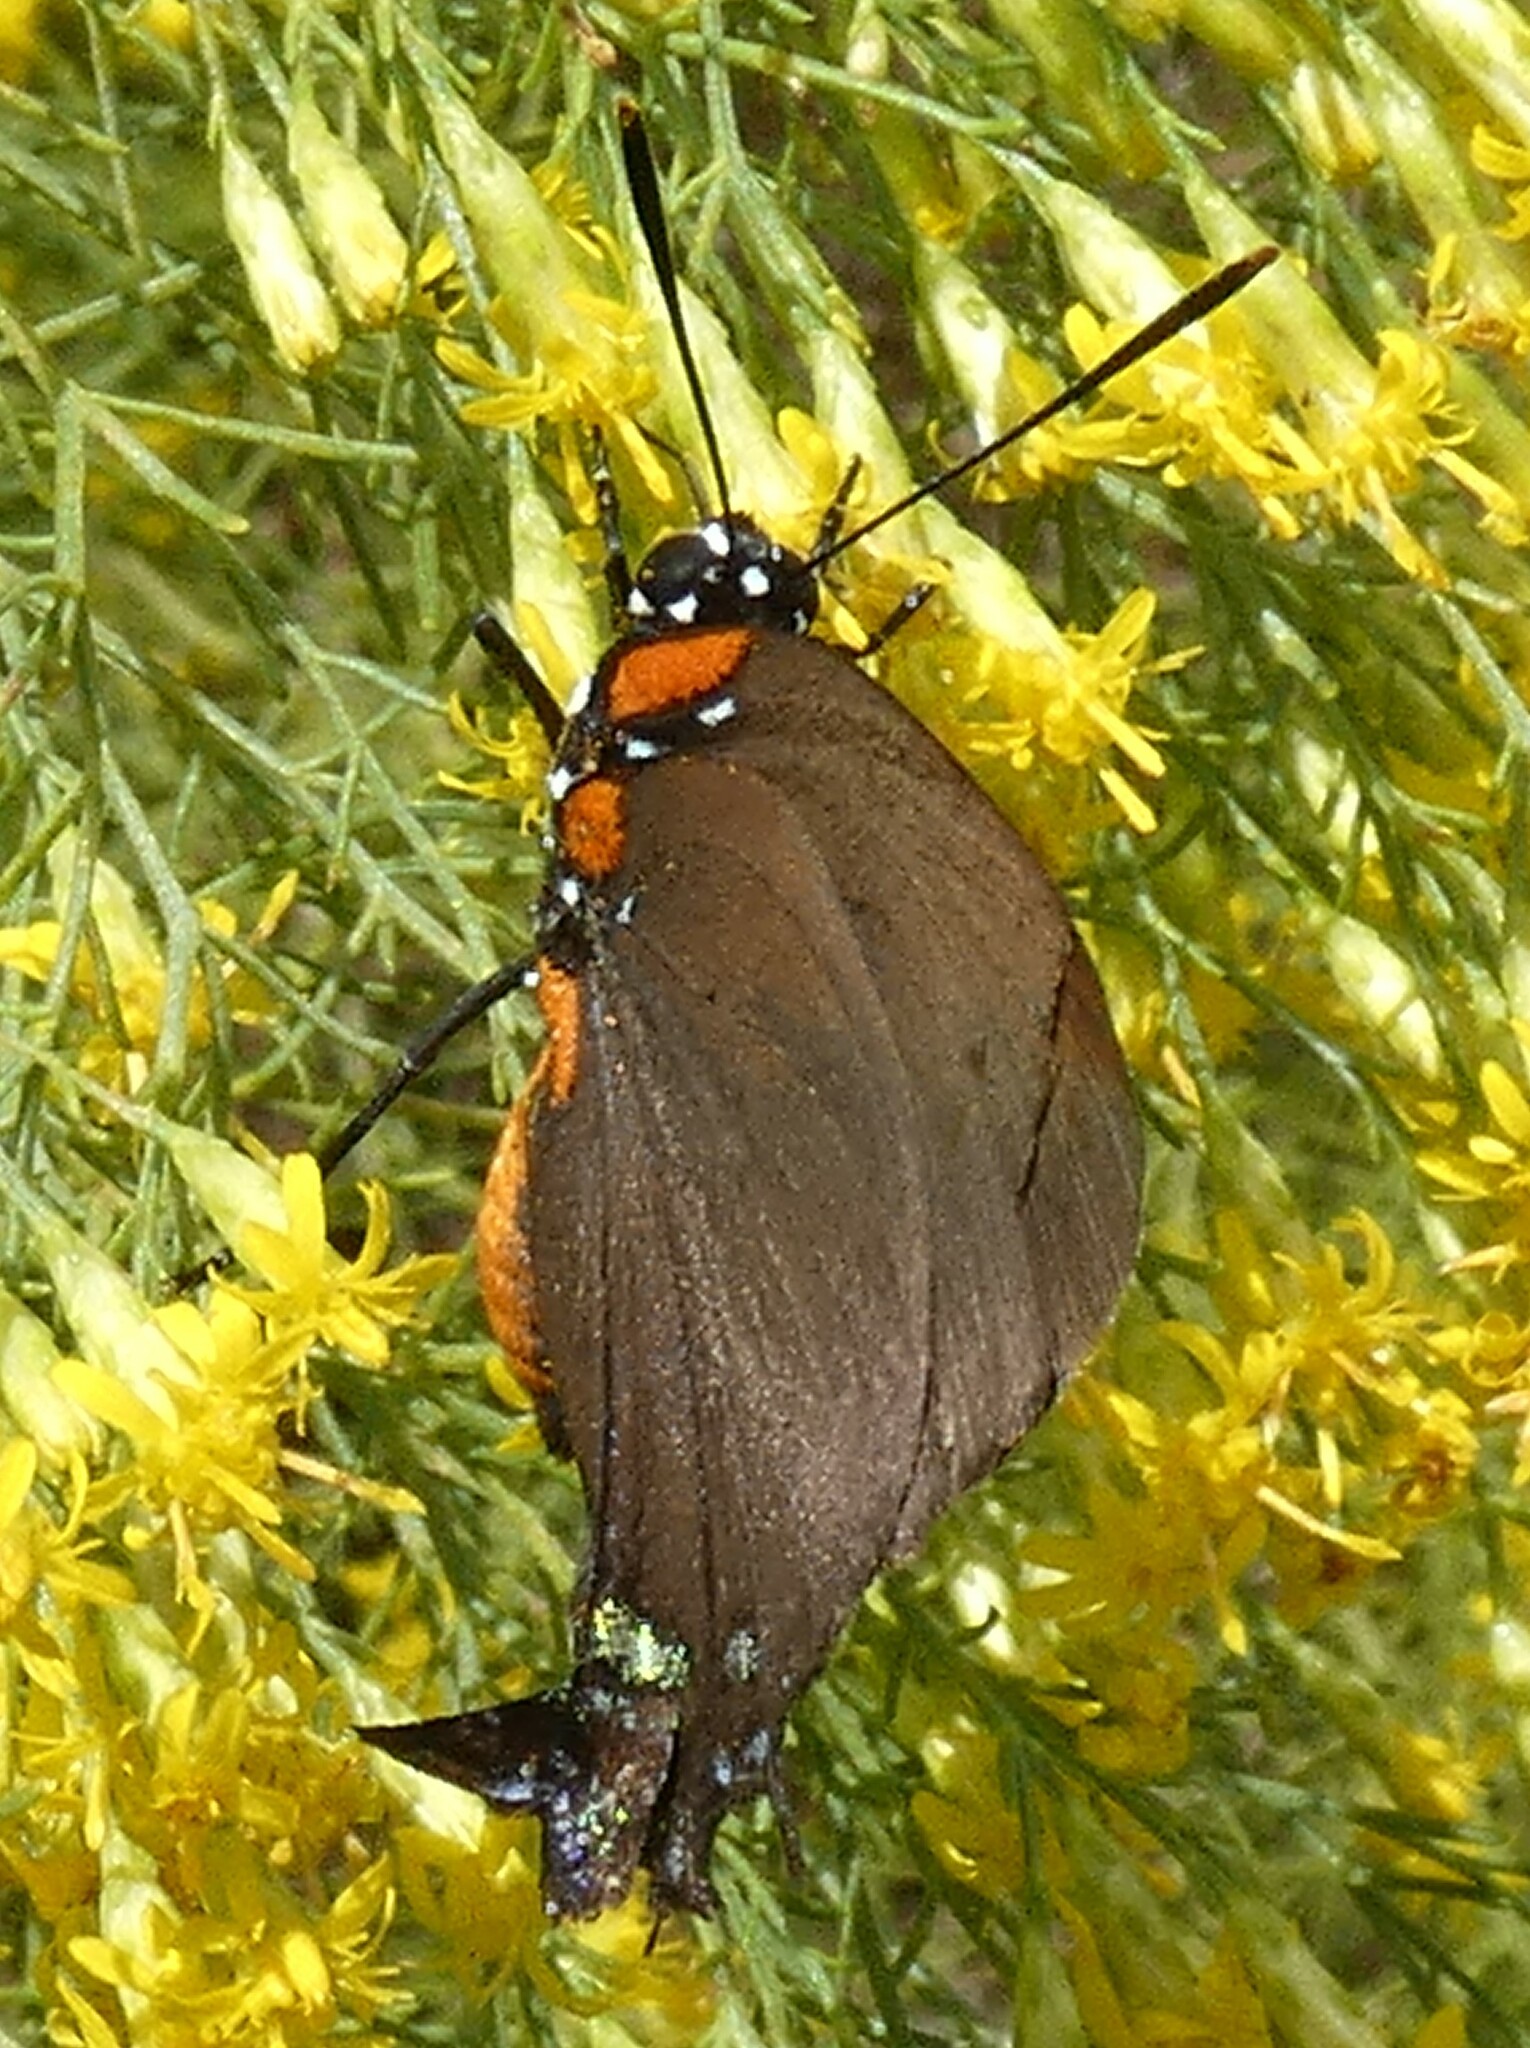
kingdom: Animalia
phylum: Arthropoda
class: Insecta
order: Lepidoptera
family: Lycaenidae
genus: Atlides
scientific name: Atlides halesus
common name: Great purple hairstreak
